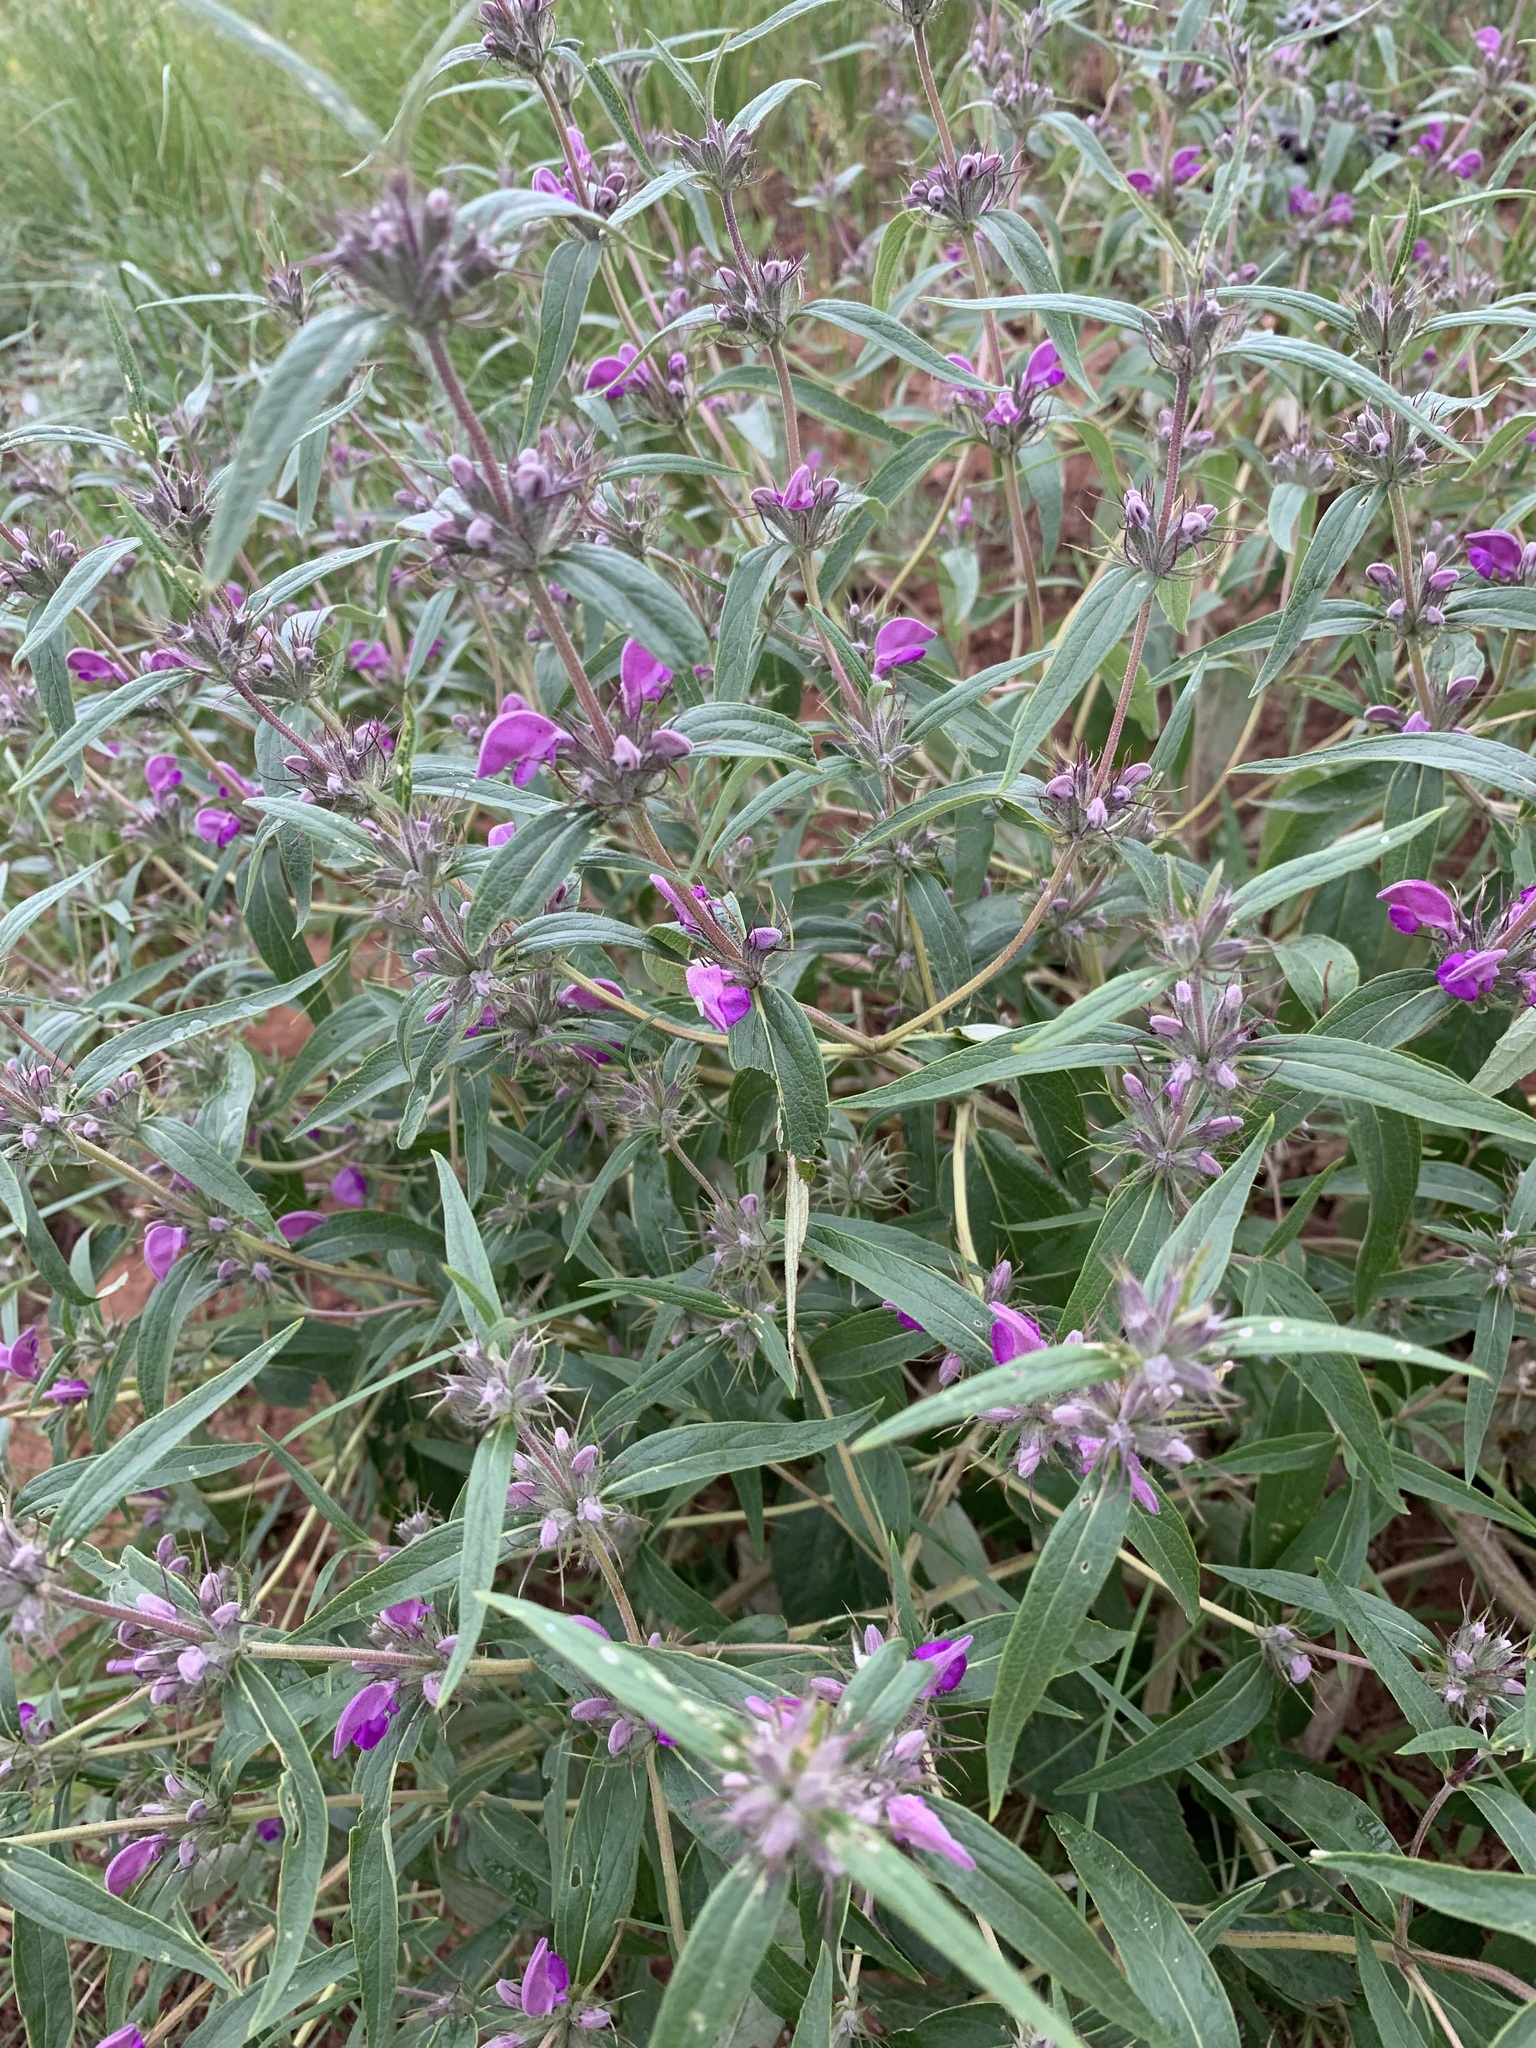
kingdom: Plantae
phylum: Tracheophyta
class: Magnoliopsida
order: Lamiales
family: Lamiaceae
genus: Phlomis
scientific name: Phlomis herba-venti
